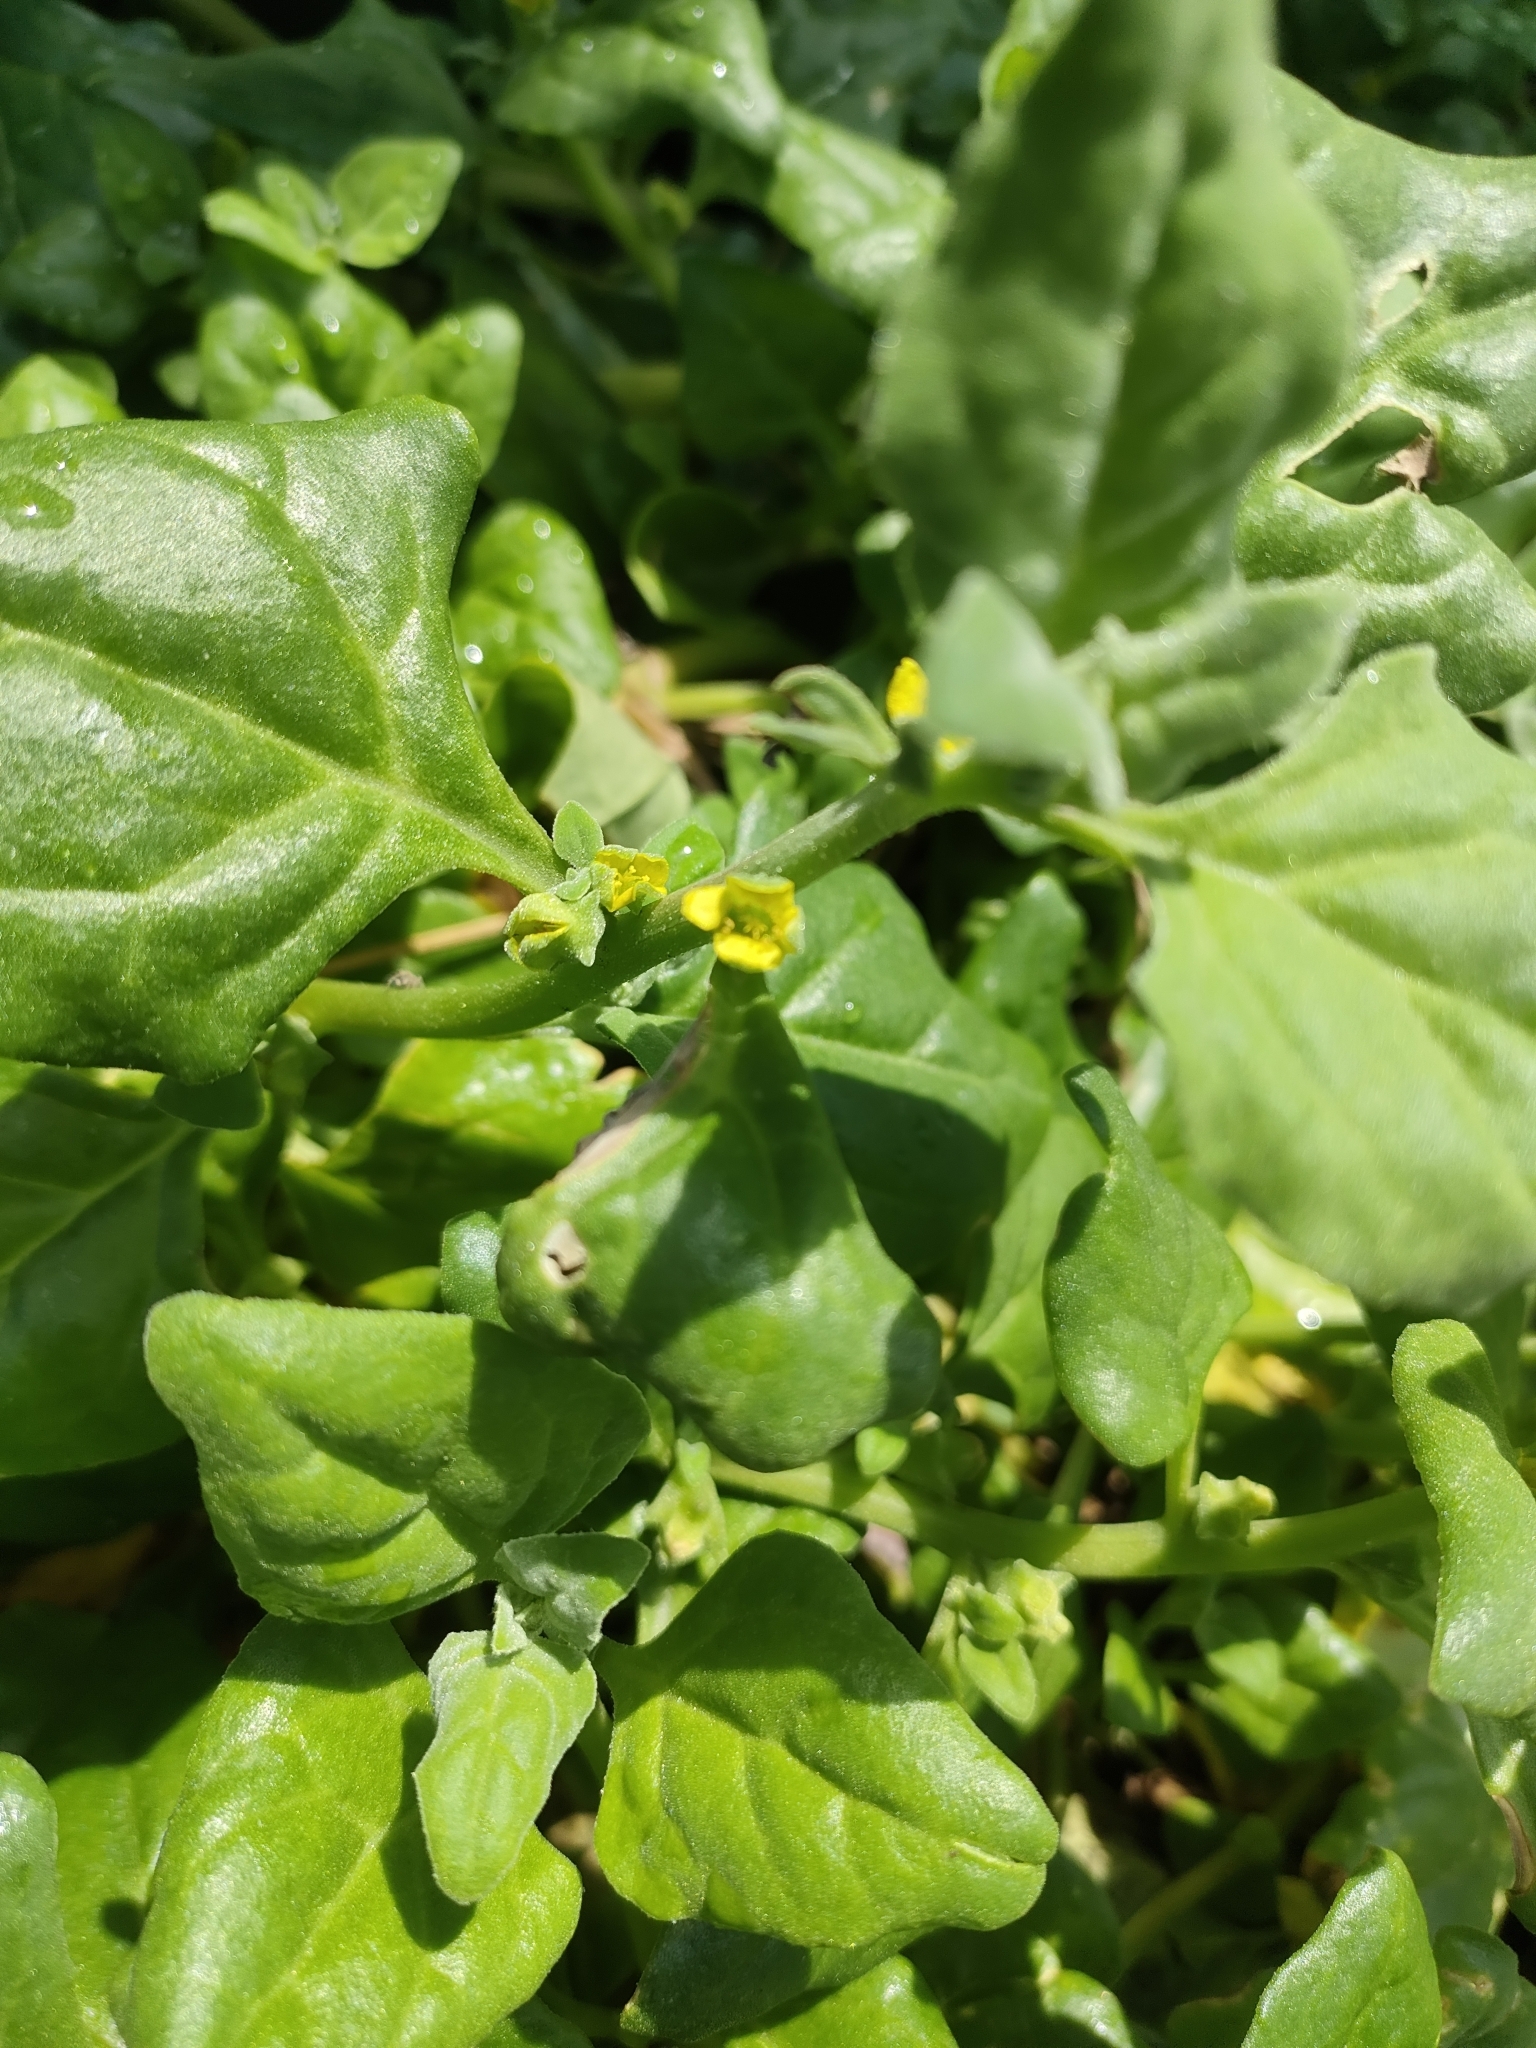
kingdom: Plantae
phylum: Tracheophyta
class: Magnoliopsida
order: Caryophyllales
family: Aizoaceae
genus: Tetragonia
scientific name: Tetragonia tetragonoides
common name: New zealand-spinach
